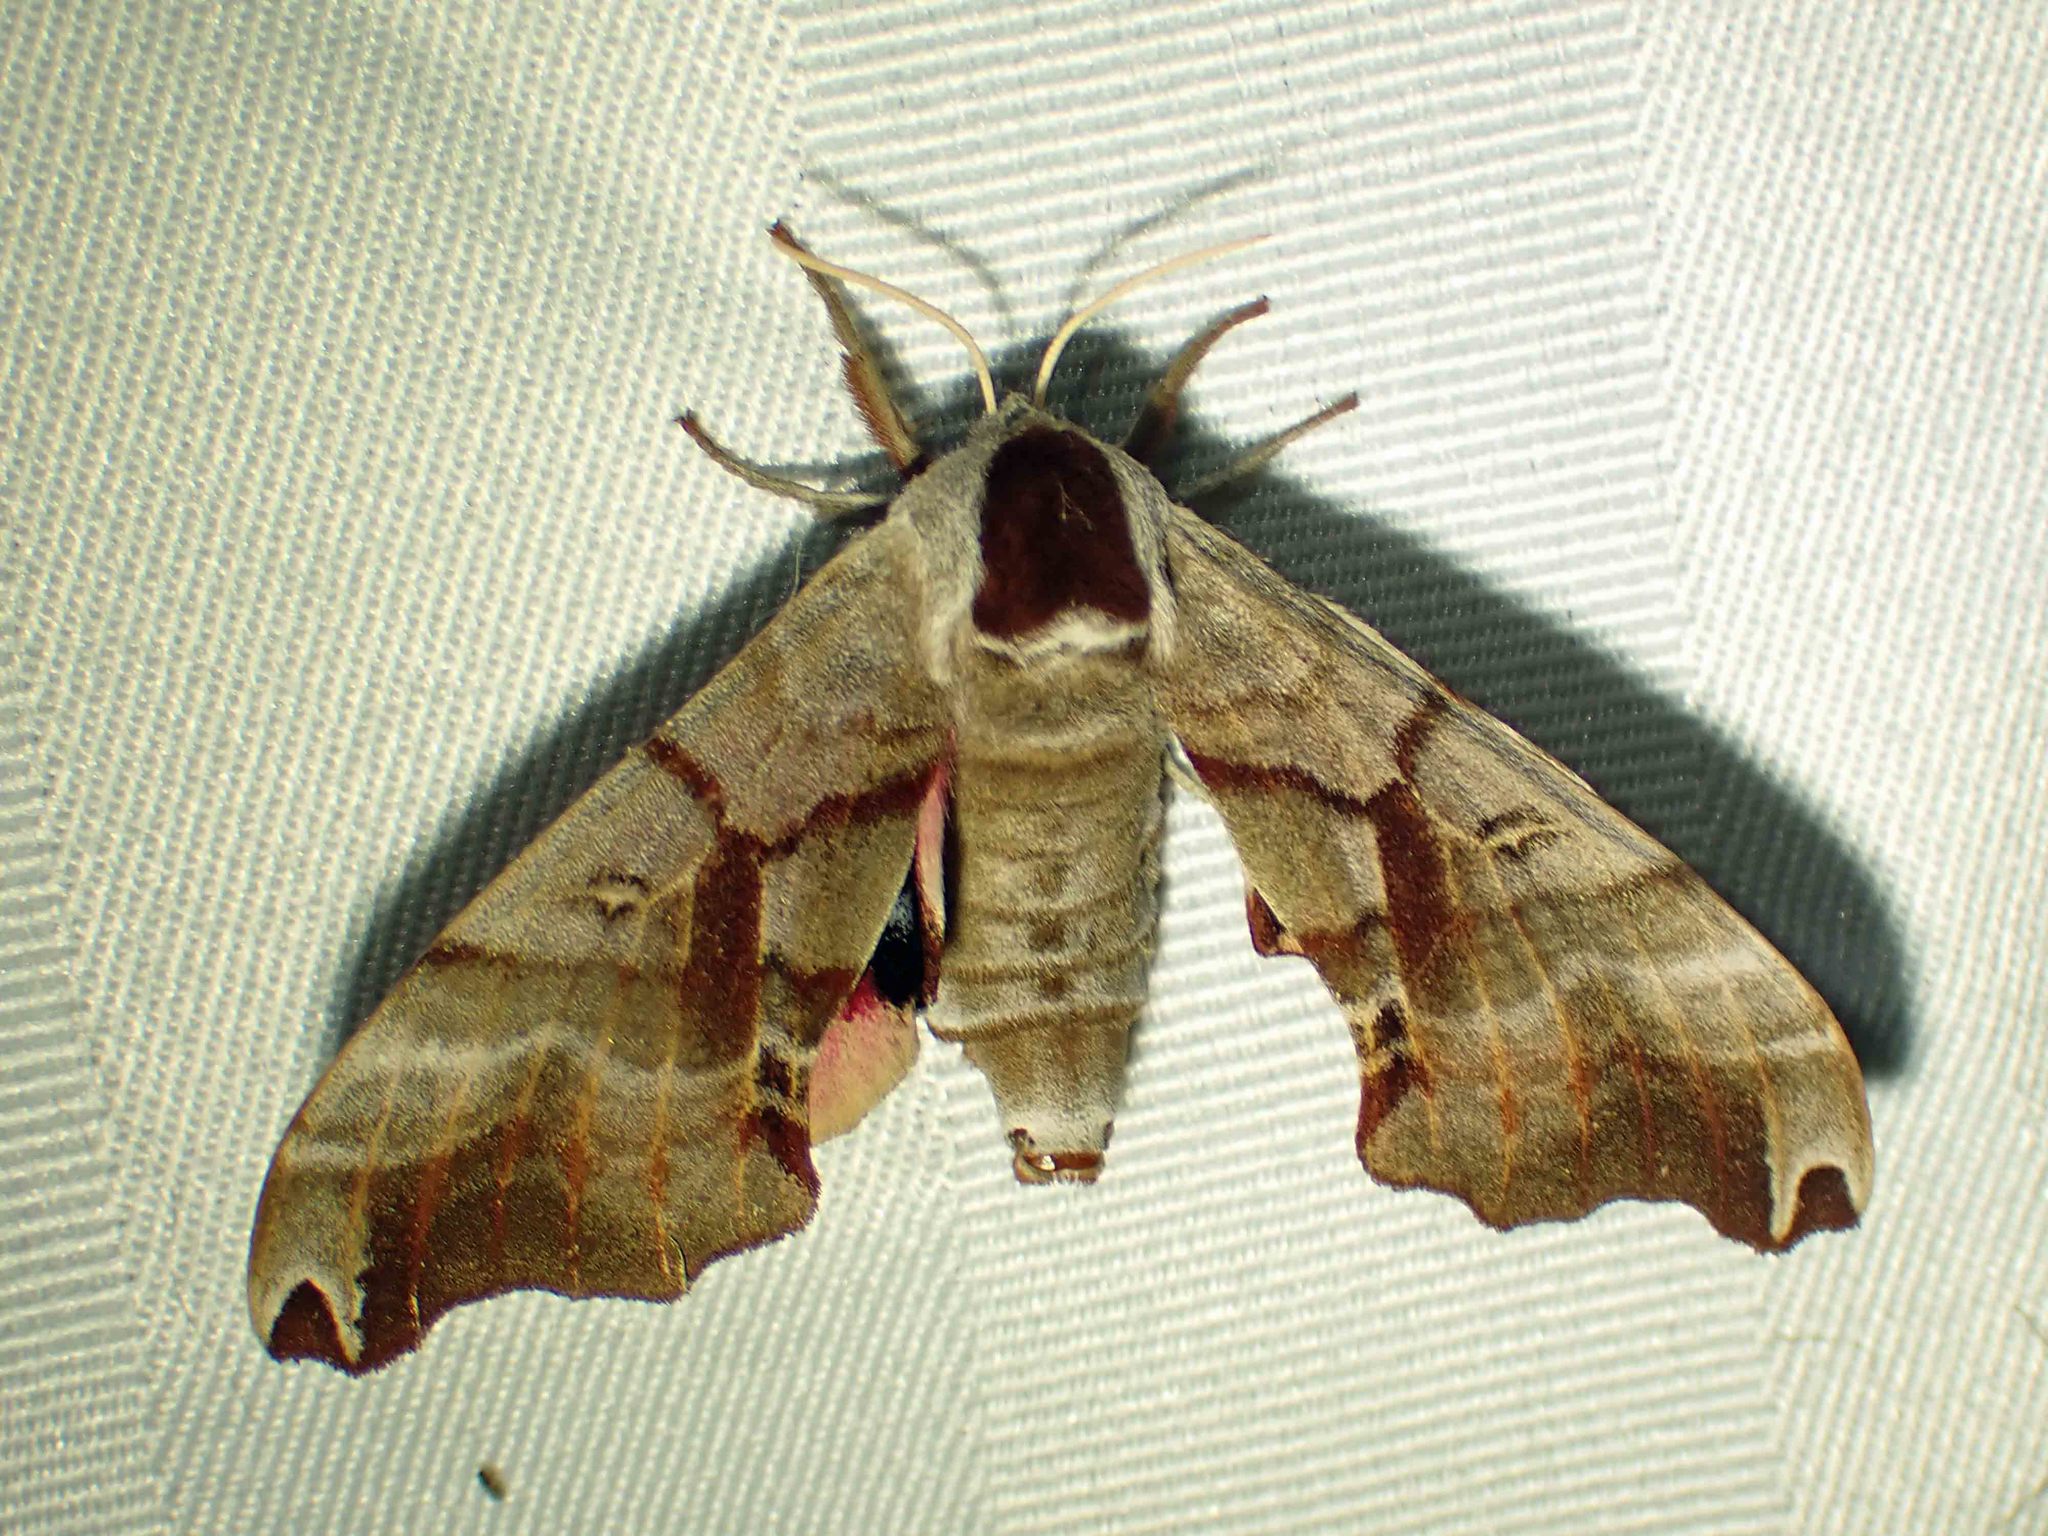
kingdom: Animalia
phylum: Arthropoda
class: Insecta
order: Lepidoptera
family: Sphingidae
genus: Smerinthus
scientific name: Smerinthus jamaicensis
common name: Twin spotted sphinx
